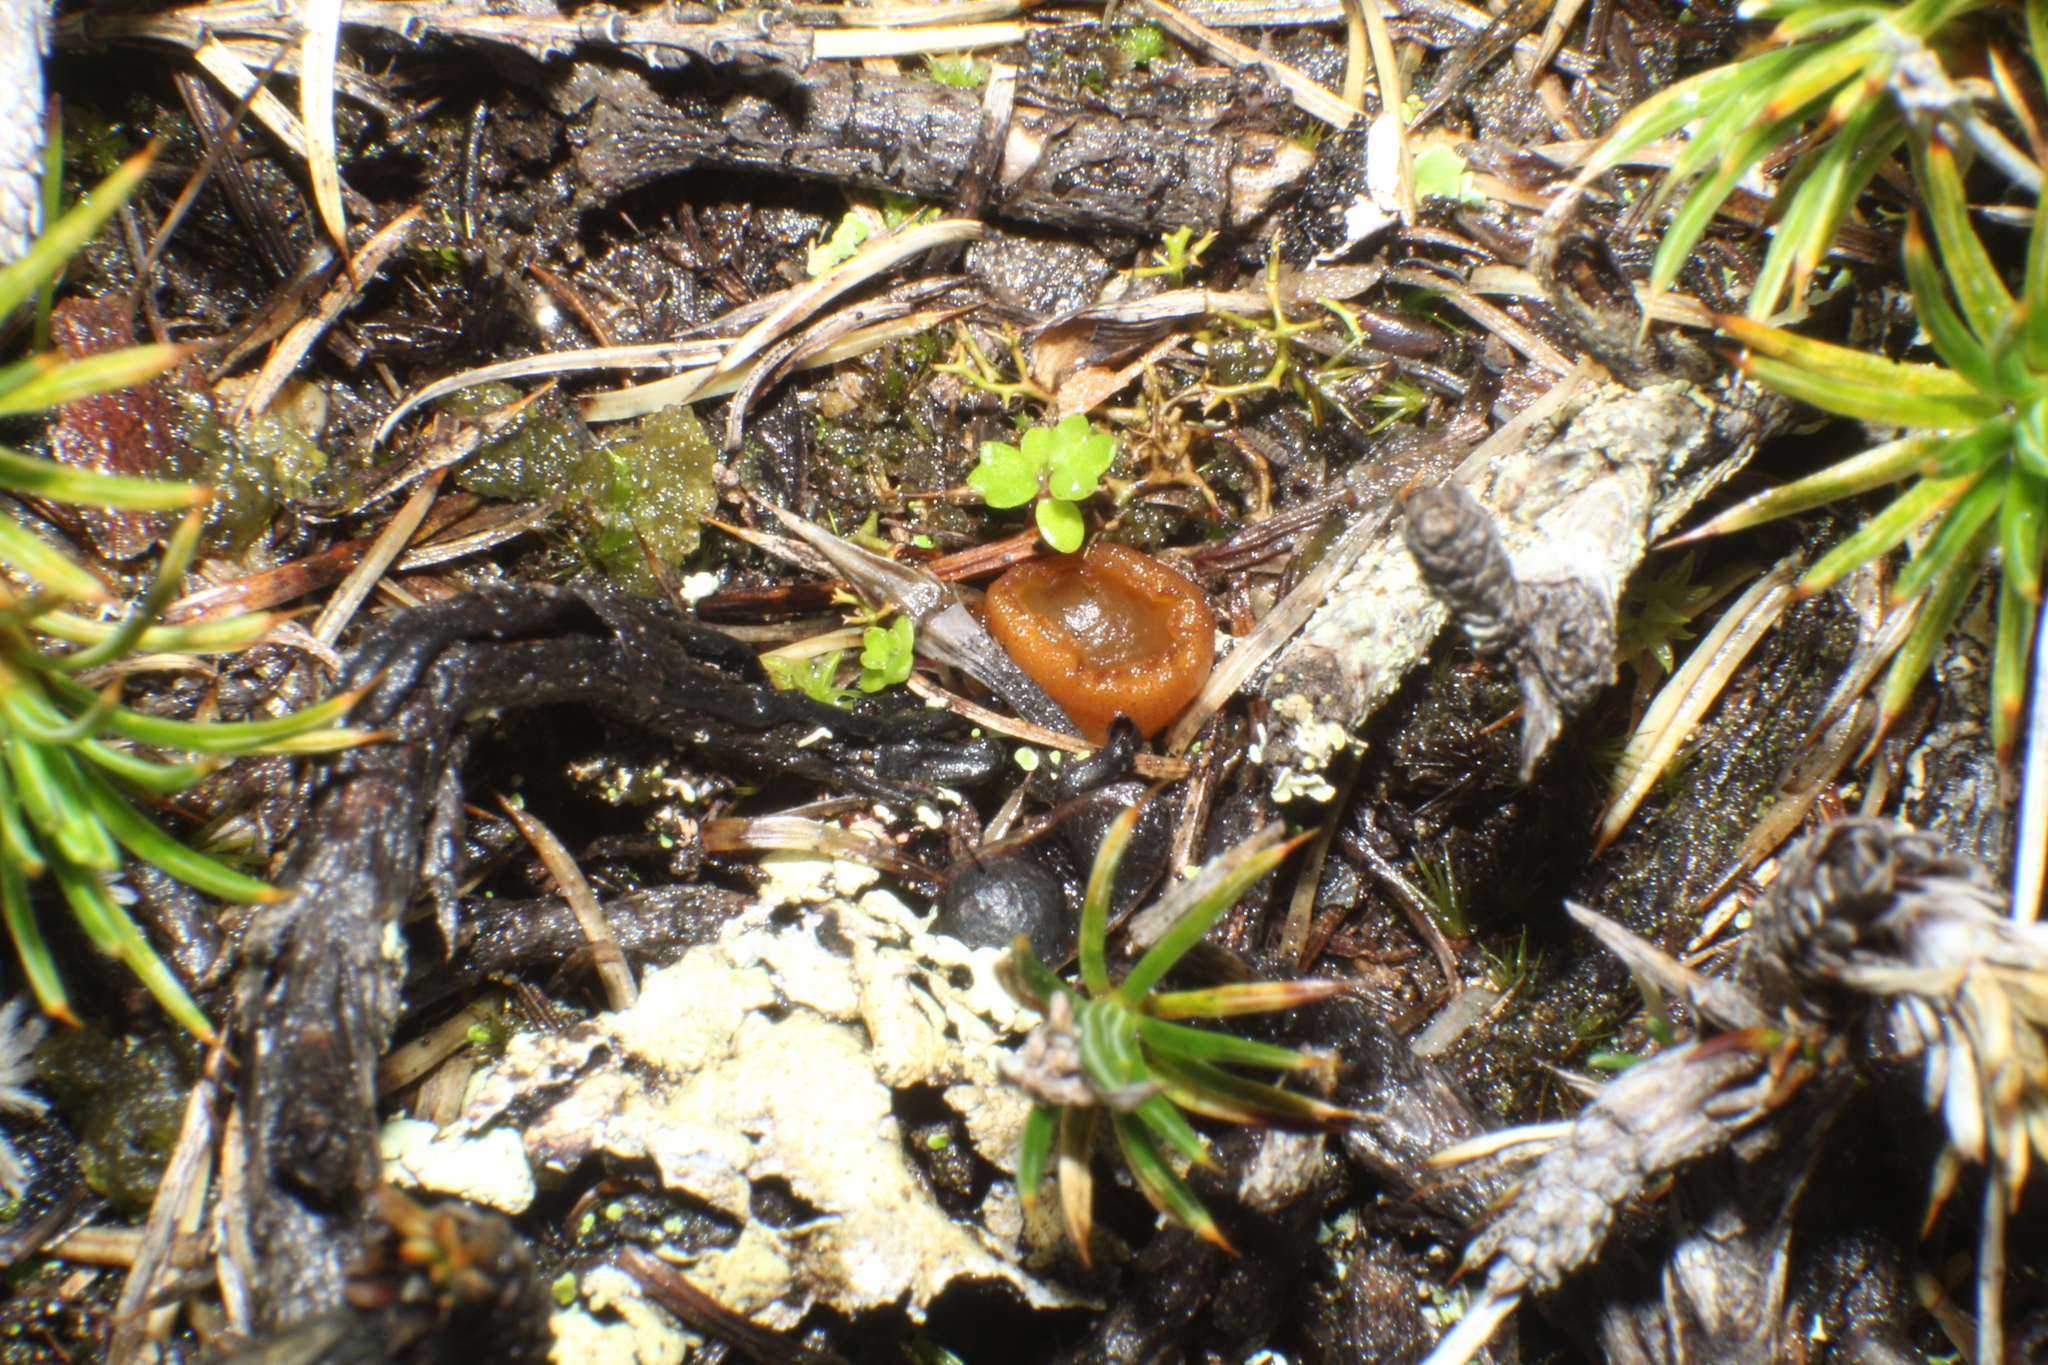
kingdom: Fungi
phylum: Ascomycota
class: Pezizomycetes
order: Pezizales
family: Pyronemataceae
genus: Aleurina
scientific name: Aleurina ferruginea
